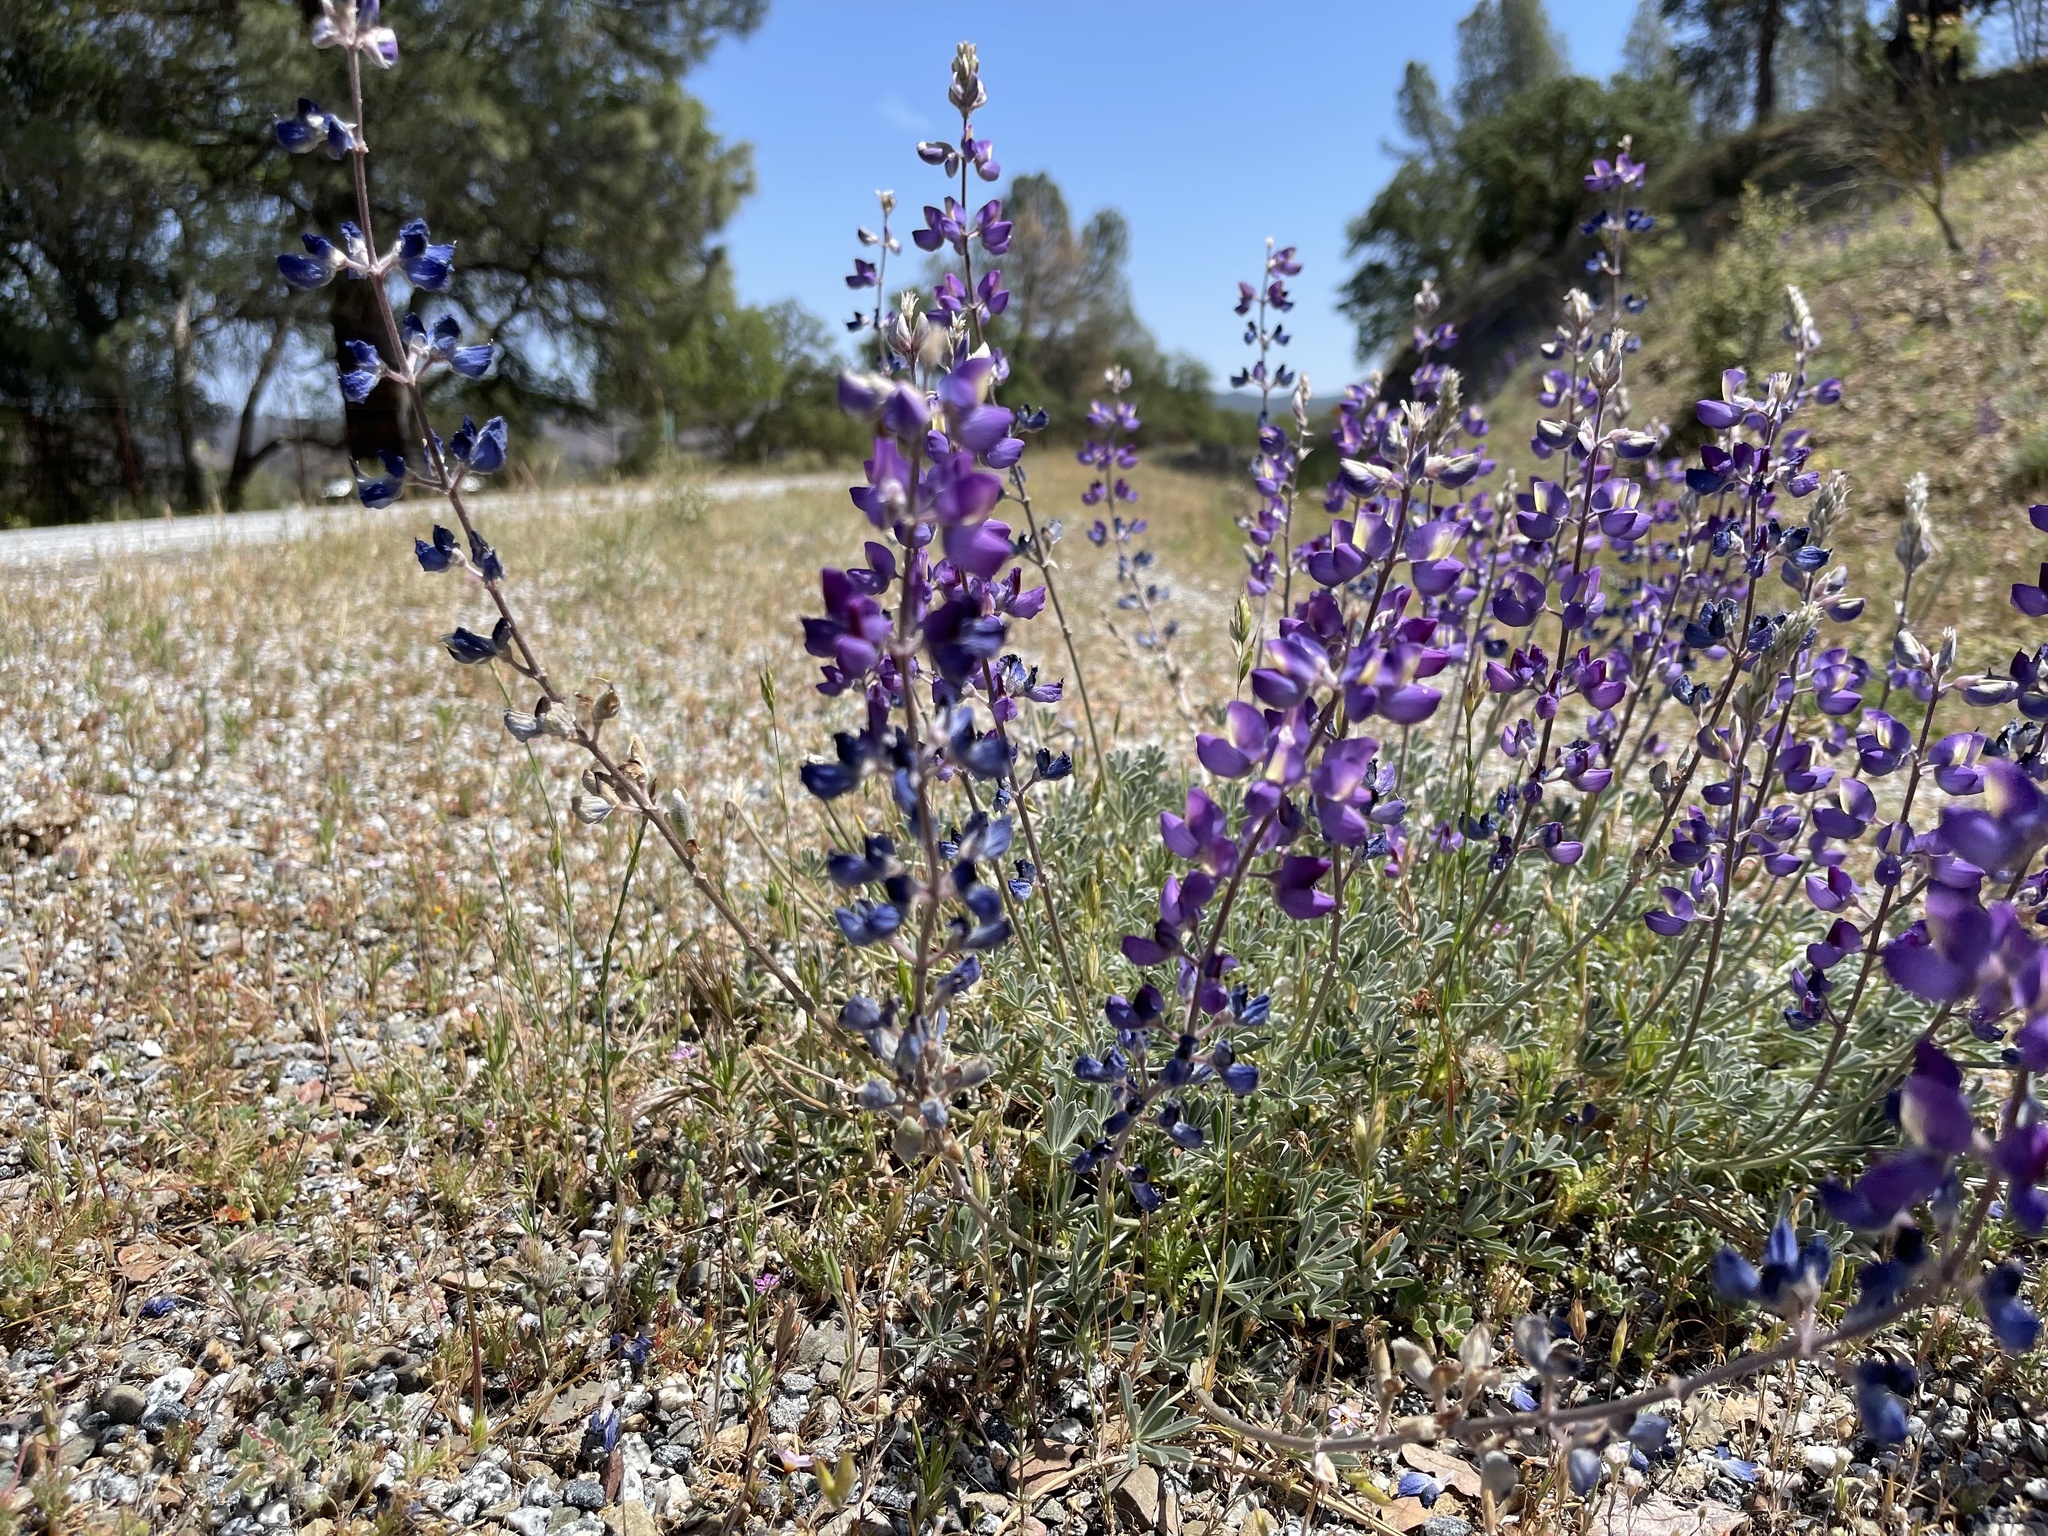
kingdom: Plantae
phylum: Tracheophyta
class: Magnoliopsida
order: Fabales
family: Fabaceae
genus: Lupinus
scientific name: Lupinus albifrons
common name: Foothill lupine
